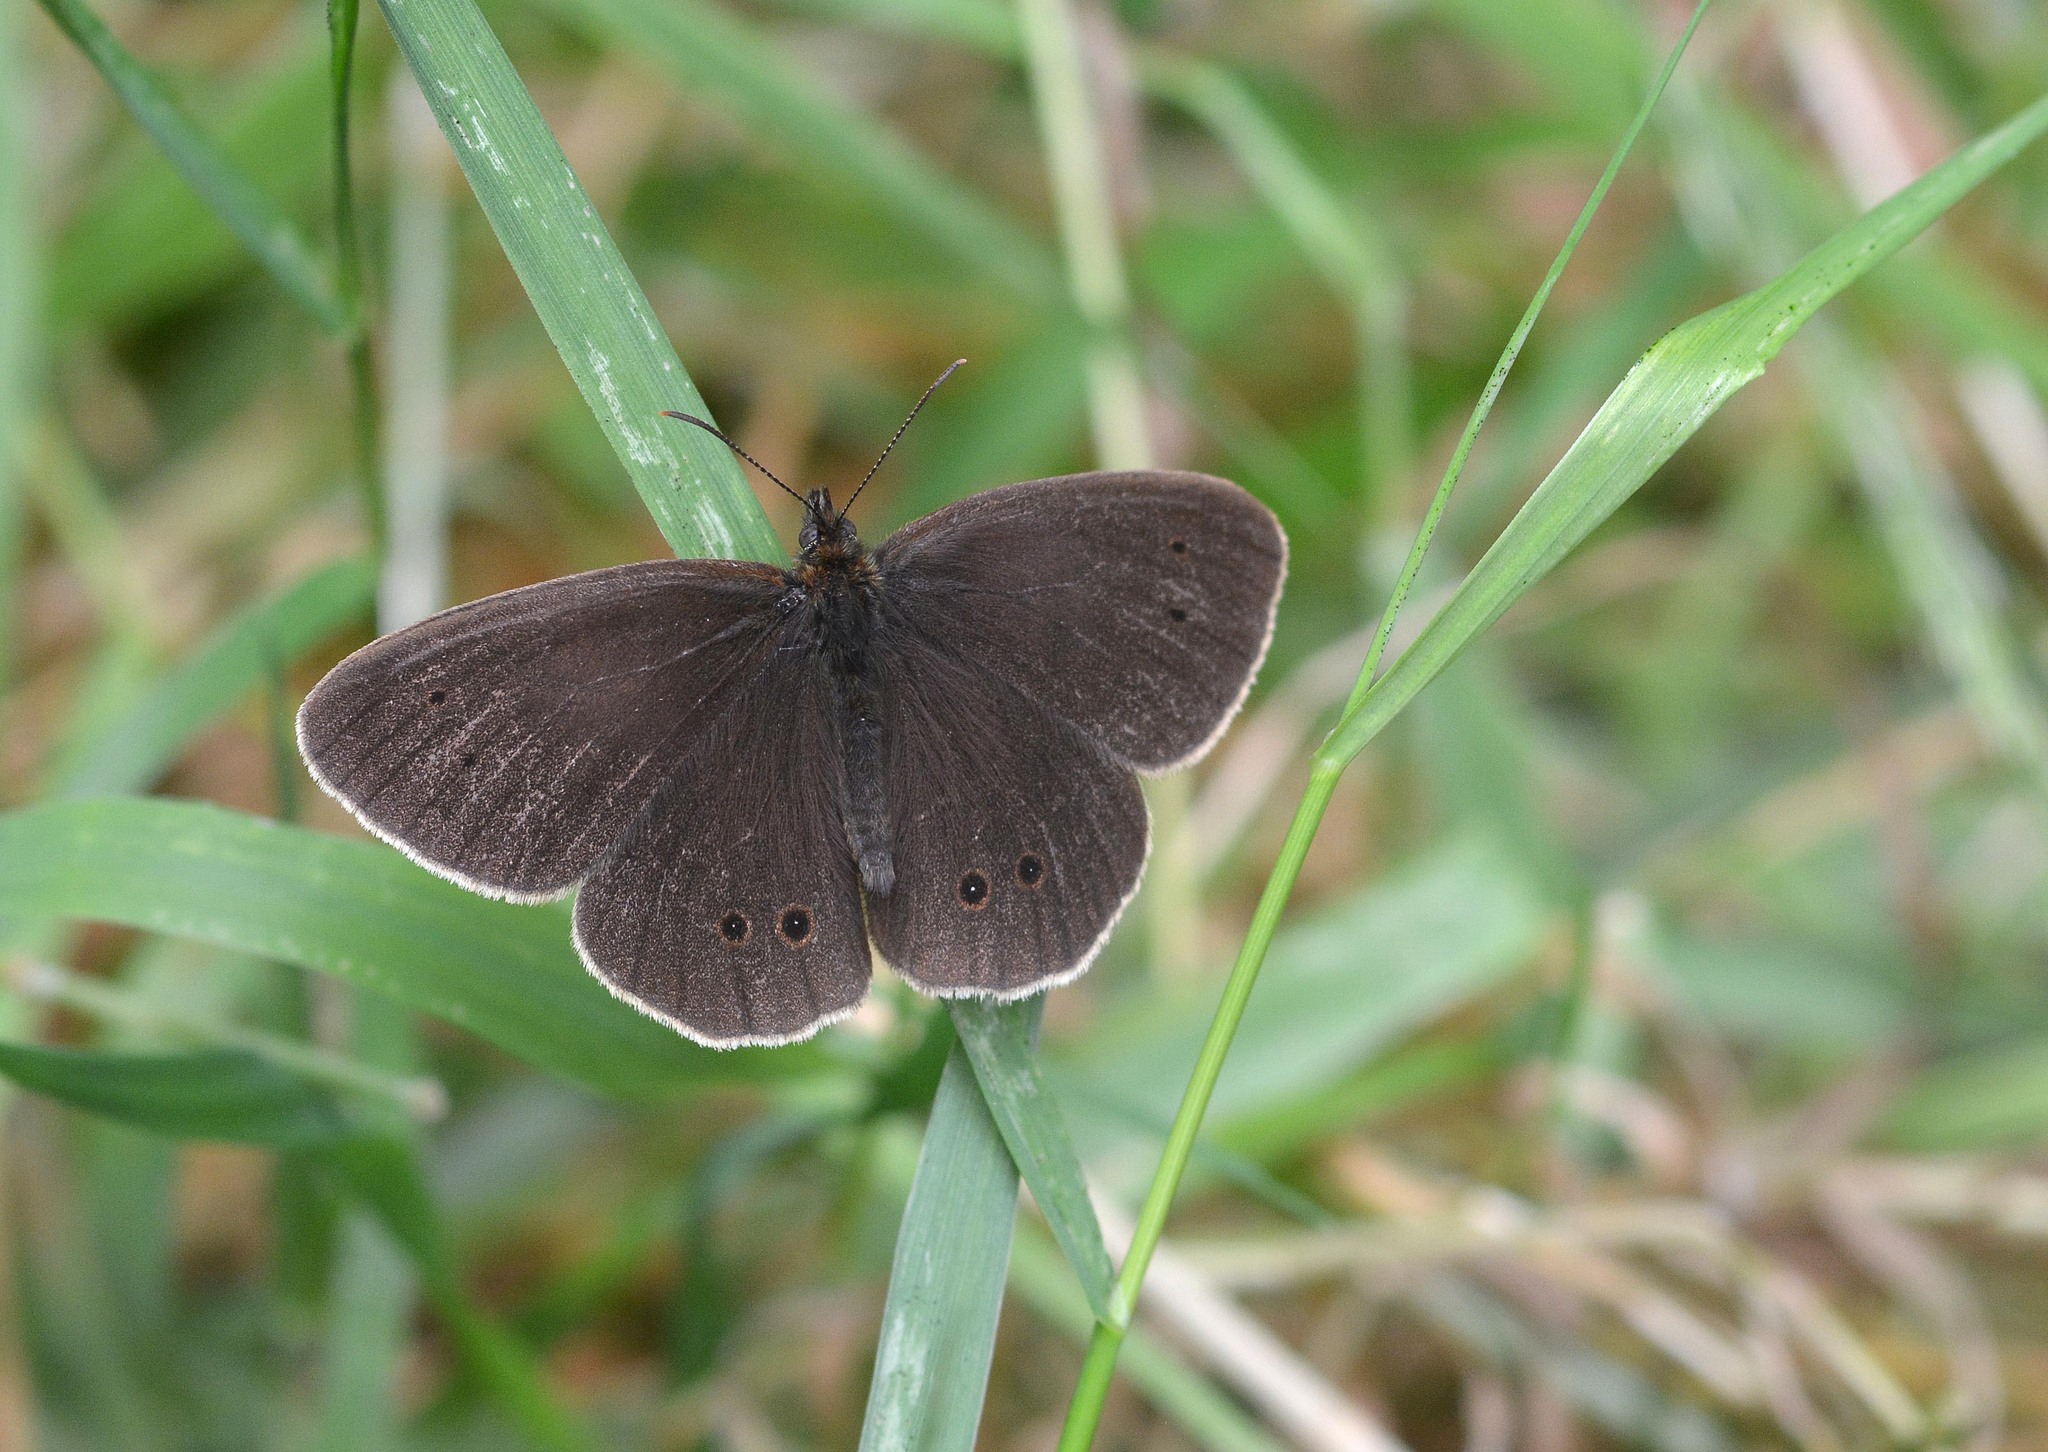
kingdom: Animalia
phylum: Arthropoda
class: Insecta
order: Lepidoptera
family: Nymphalidae
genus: Aphantopus
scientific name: Aphantopus hyperantus
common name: Ringlet
